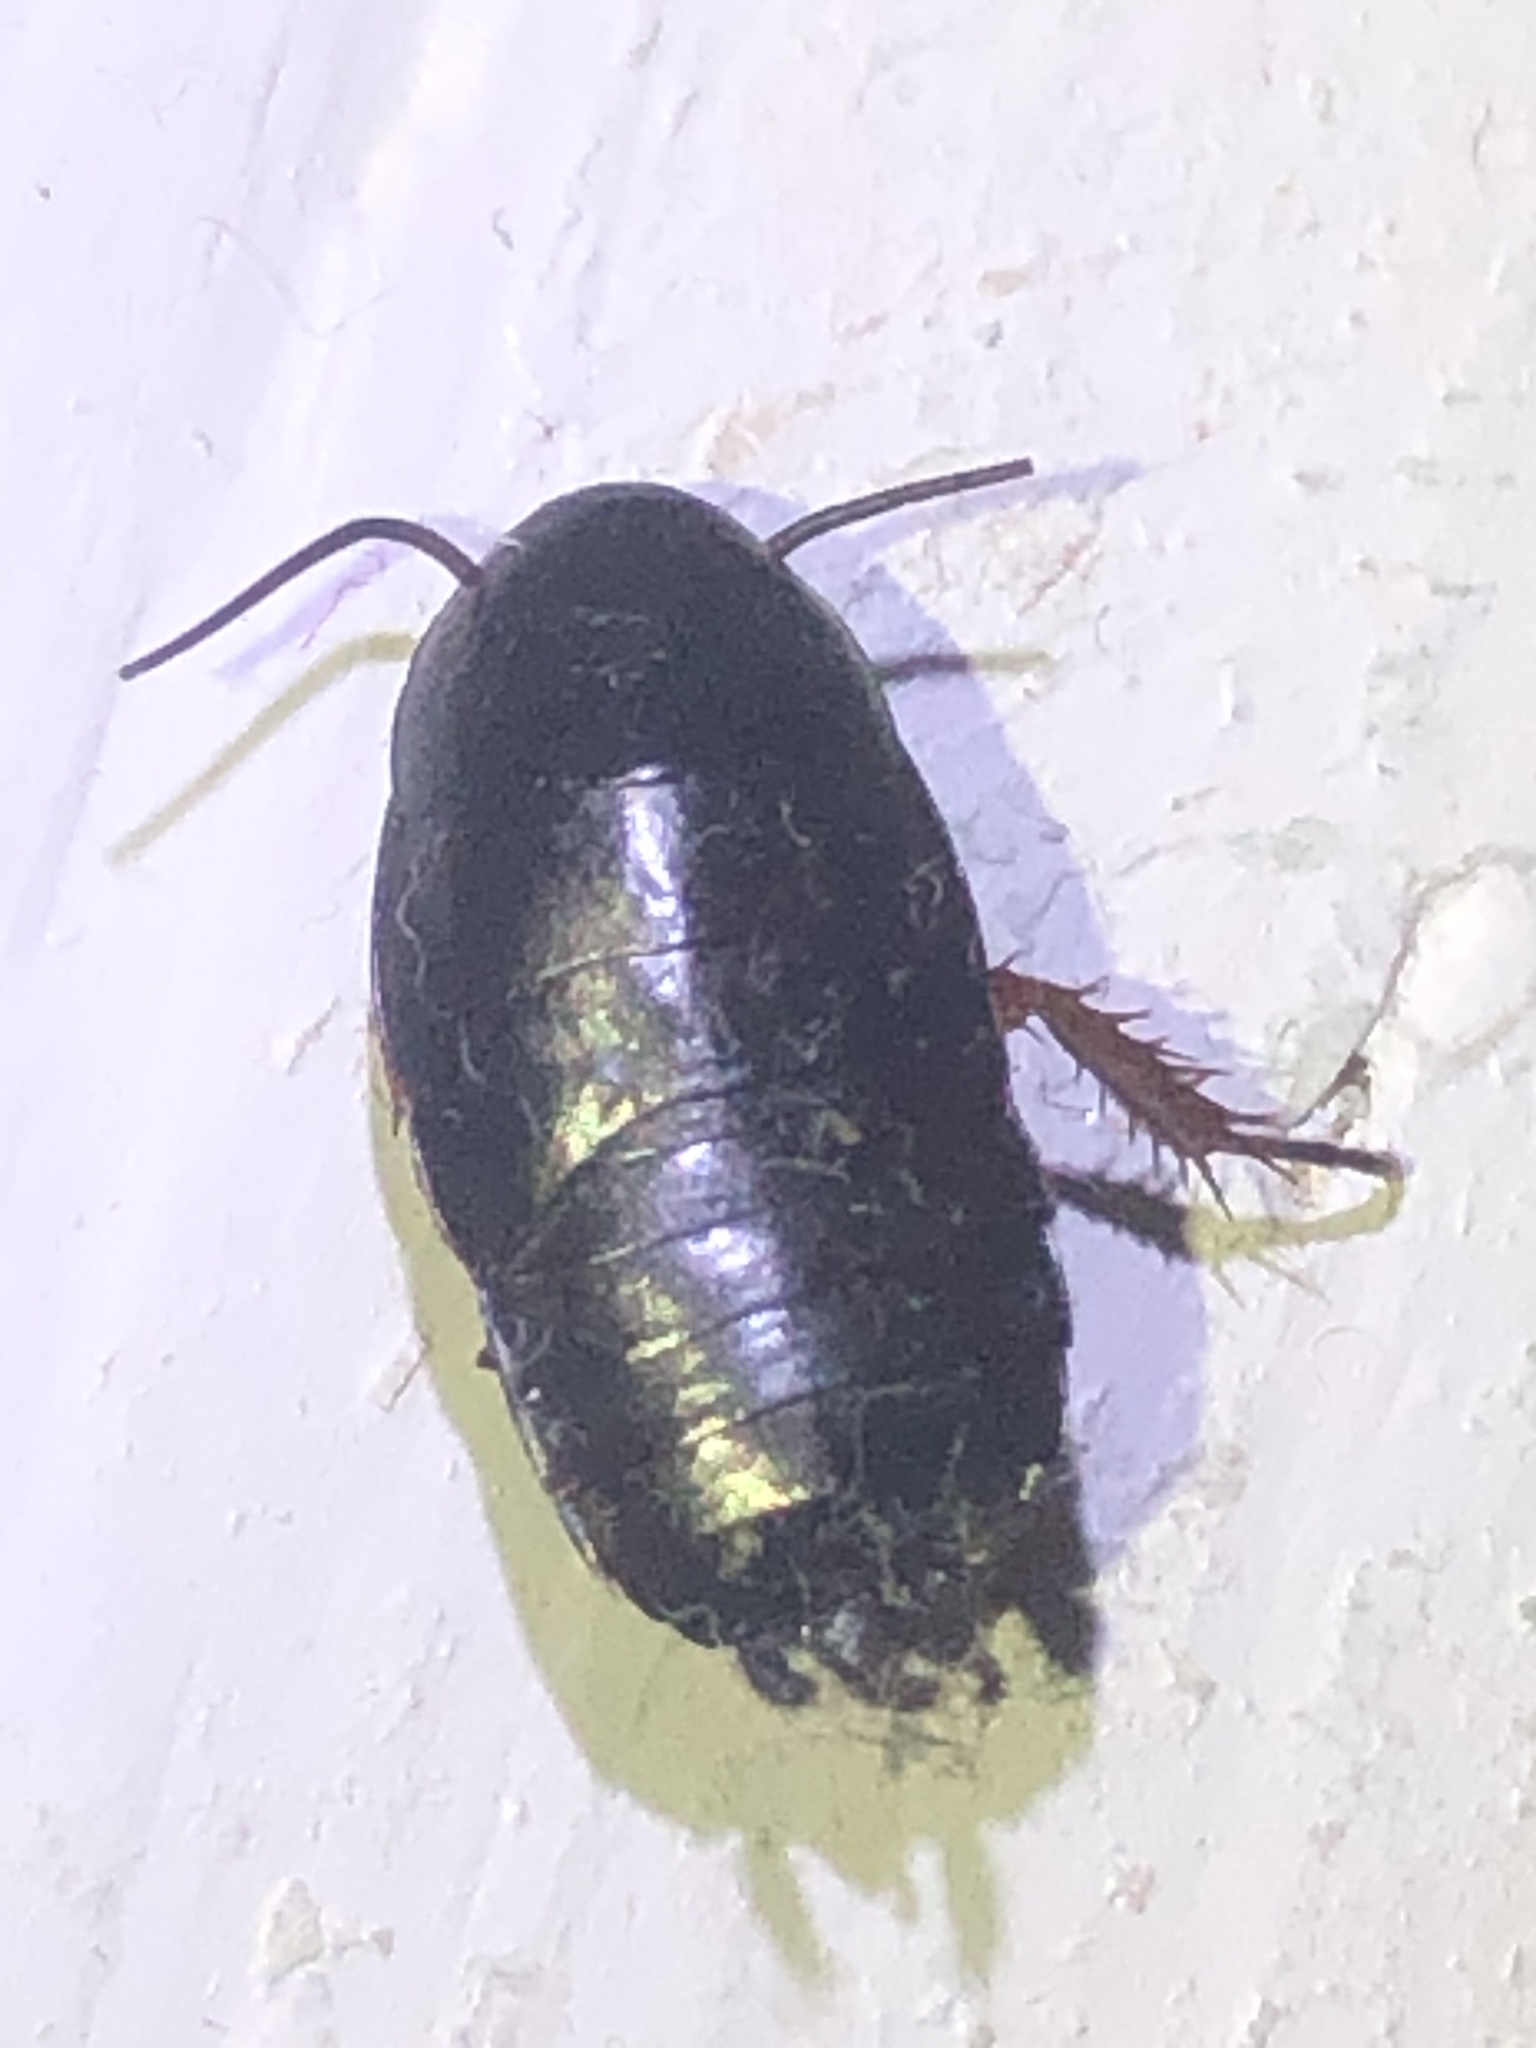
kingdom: Animalia
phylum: Arthropoda
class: Insecta
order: Blattodea
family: Ectobiidae
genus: Ischnoptera
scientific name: Ischnoptera deropeltiformis
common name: Dark wood cockroach
